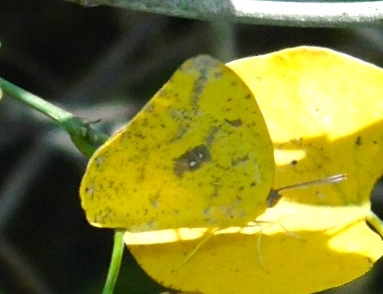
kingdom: Animalia
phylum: Arthropoda
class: Insecta
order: Lepidoptera
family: Pieridae
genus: Phoebis
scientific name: Phoebis
